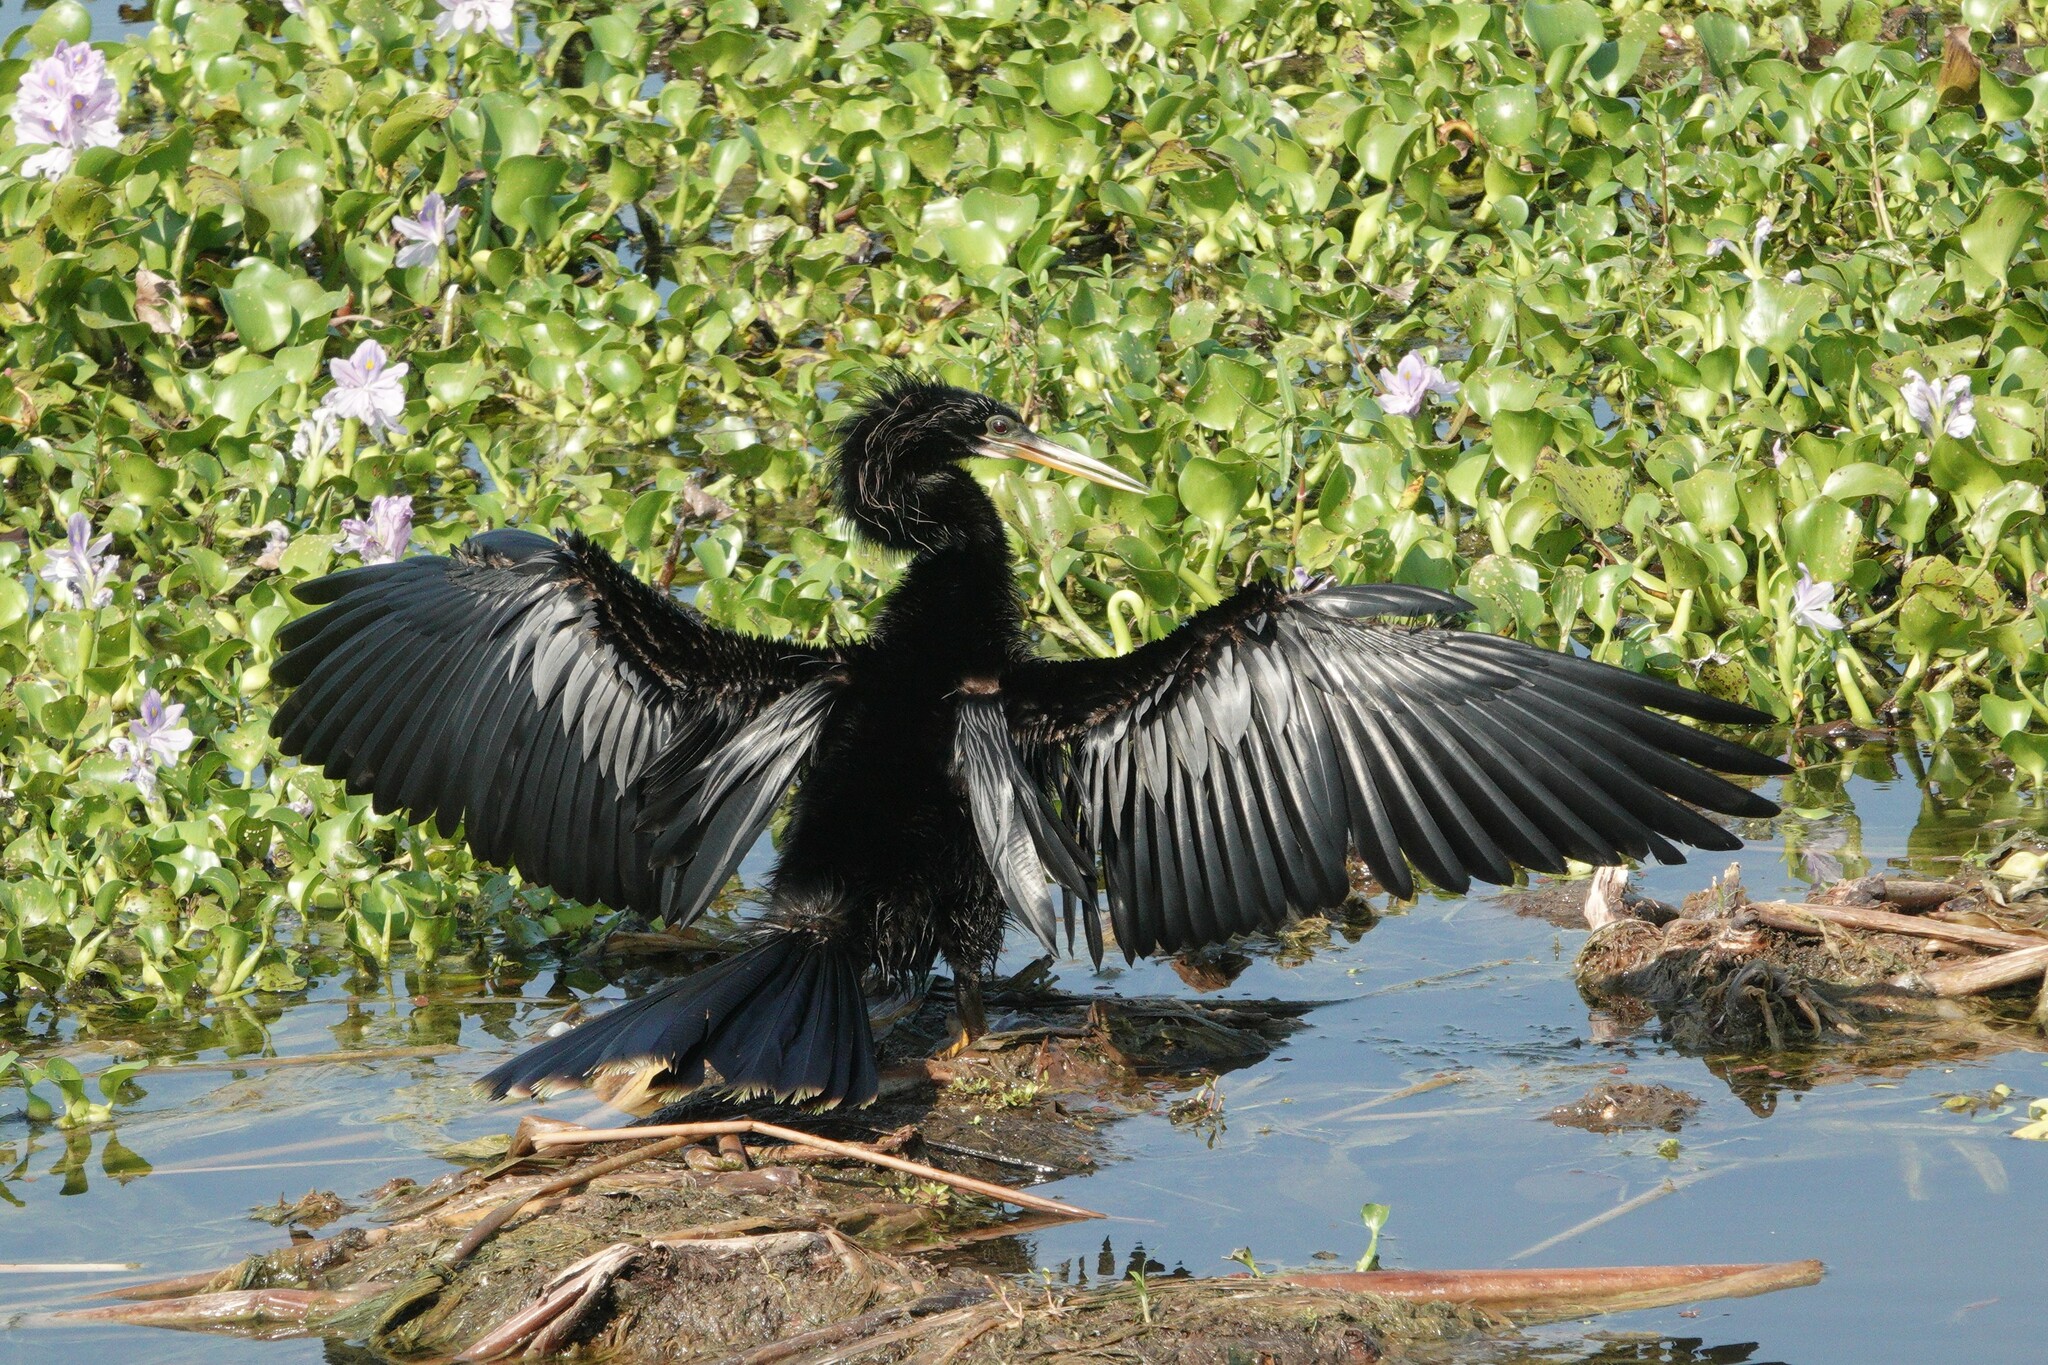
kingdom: Animalia
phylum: Chordata
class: Aves
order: Suliformes
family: Anhingidae
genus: Anhinga
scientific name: Anhinga anhinga
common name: Anhinga
